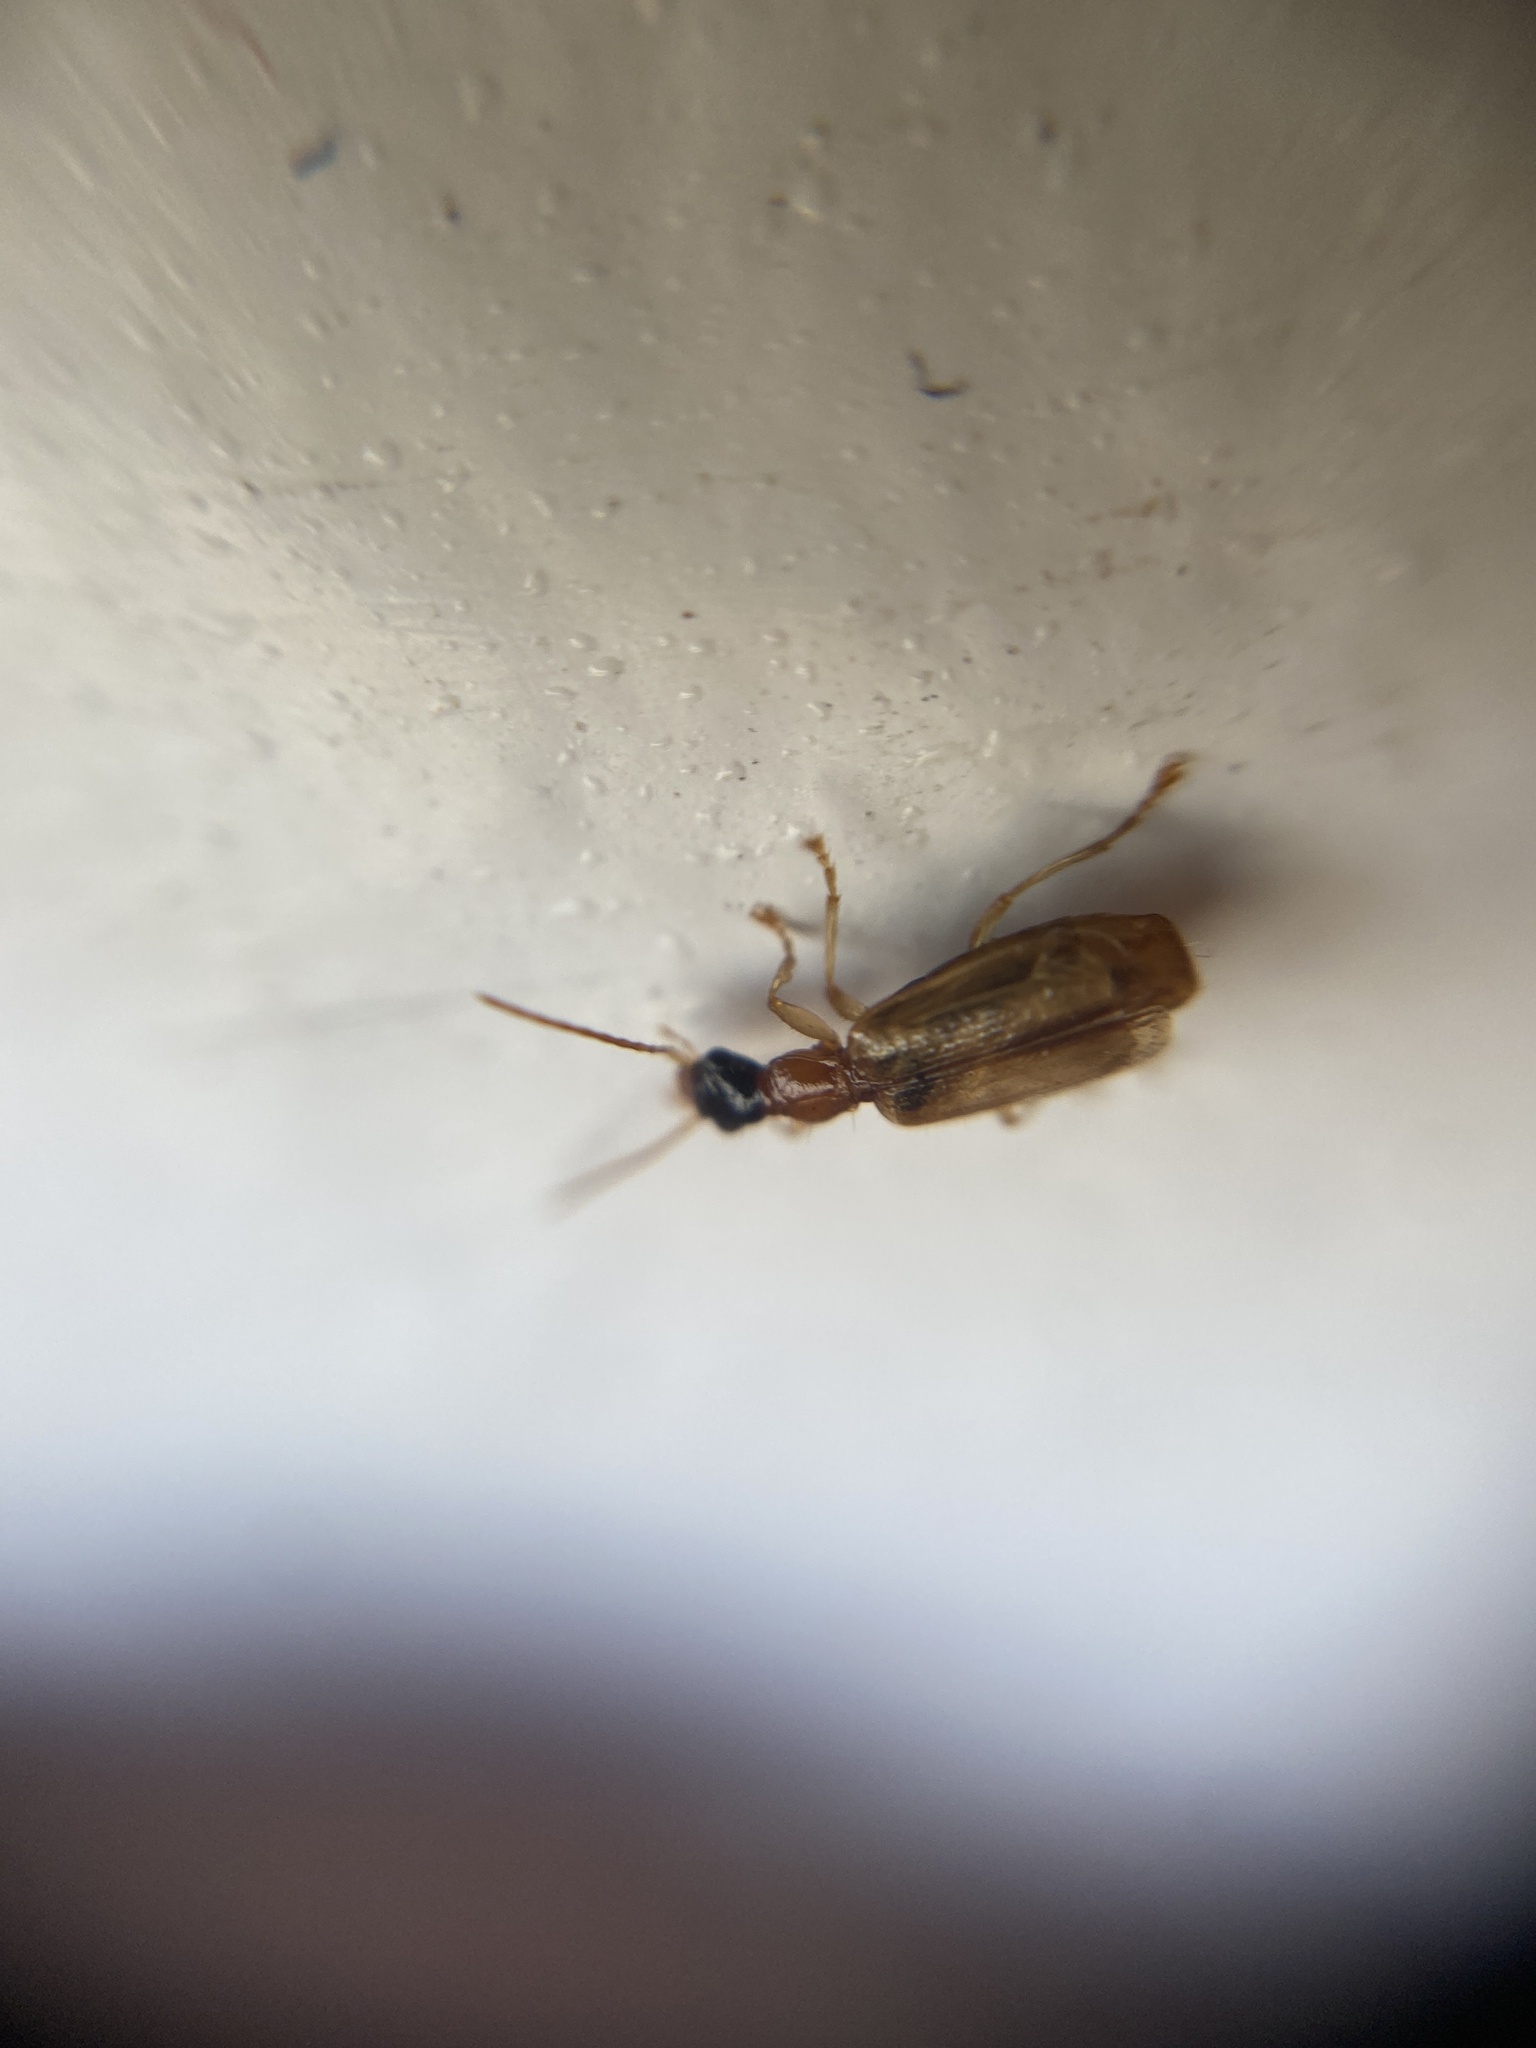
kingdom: Animalia
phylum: Arthropoda
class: Insecta
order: Coleoptera
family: Carabidae
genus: Demetrias
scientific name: Demetrias atricapillus
